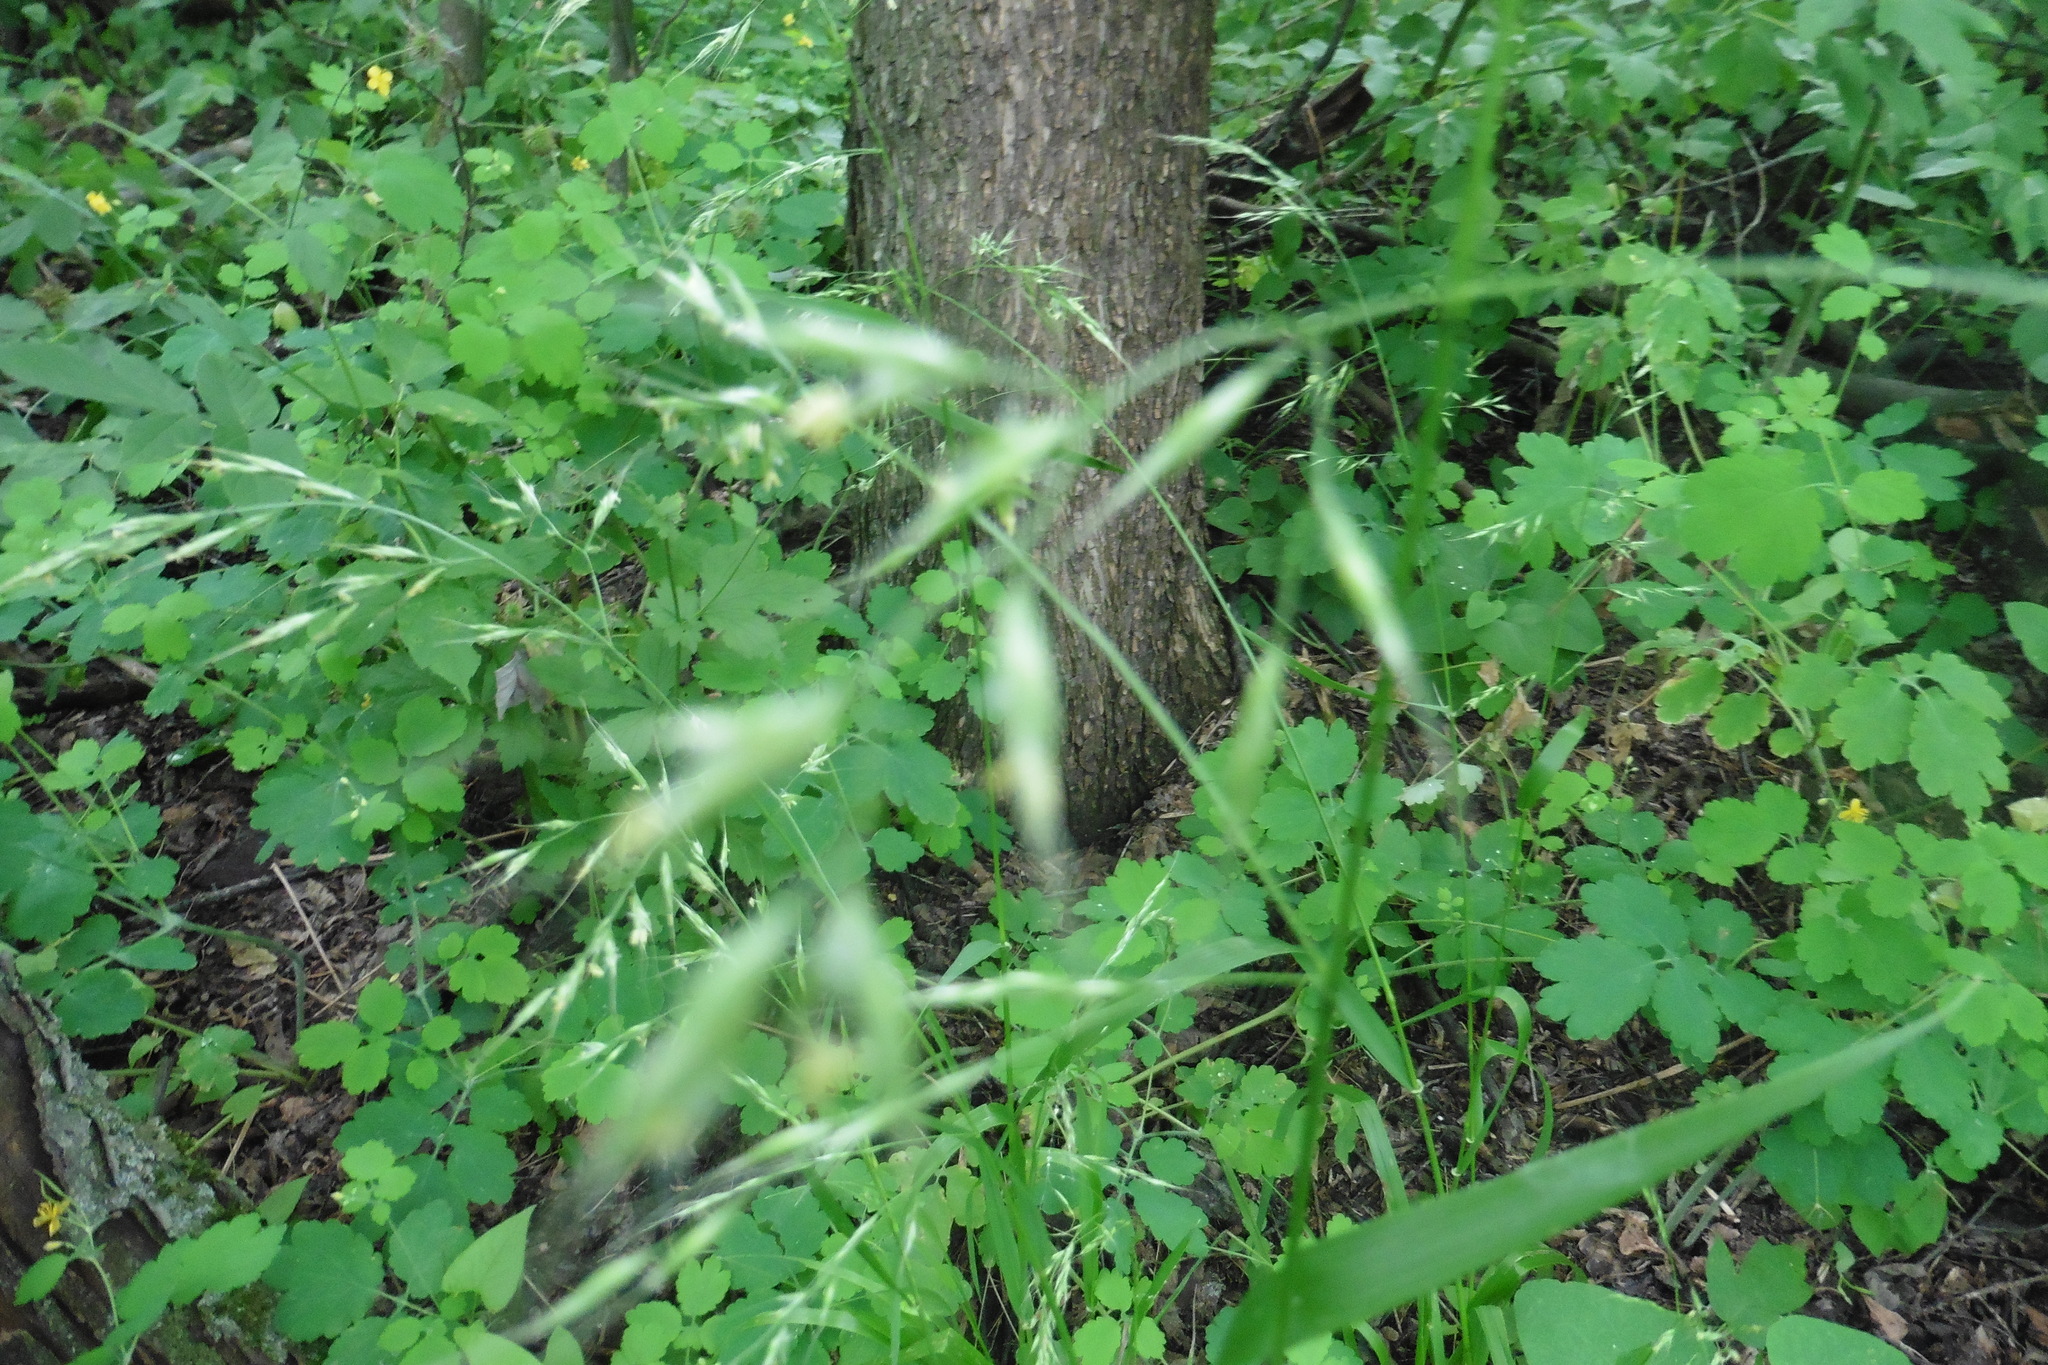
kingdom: Plantae
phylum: Tracheophyta
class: Liliopsida
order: Poales
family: Poaceae
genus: Lolium
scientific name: Lolium giganteum
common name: Giant fescue
